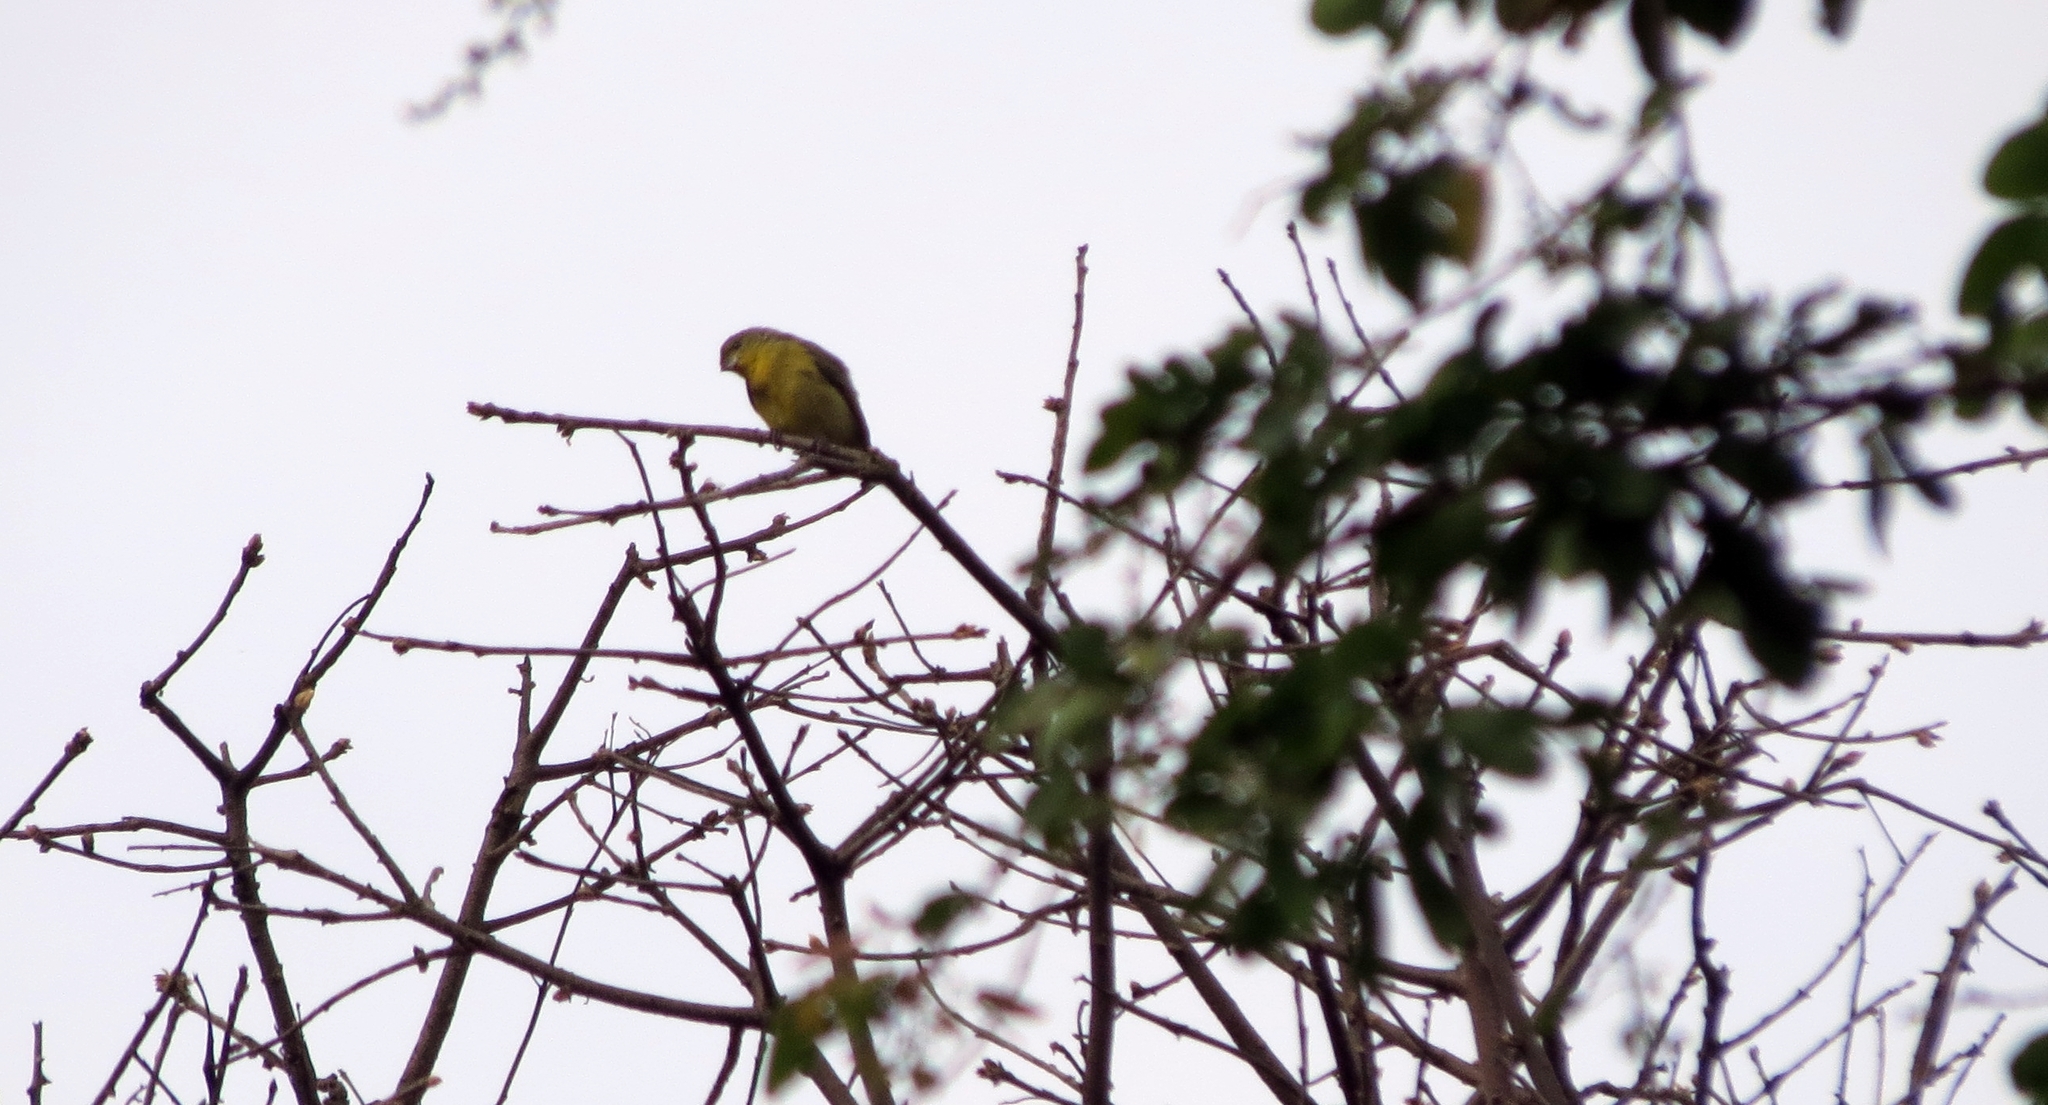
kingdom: Animalia
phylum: Chordata
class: Aves
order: Passeriformes
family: Fringillidae
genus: Spinus
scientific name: Spinus psaltria
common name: Lesser goldfinch
